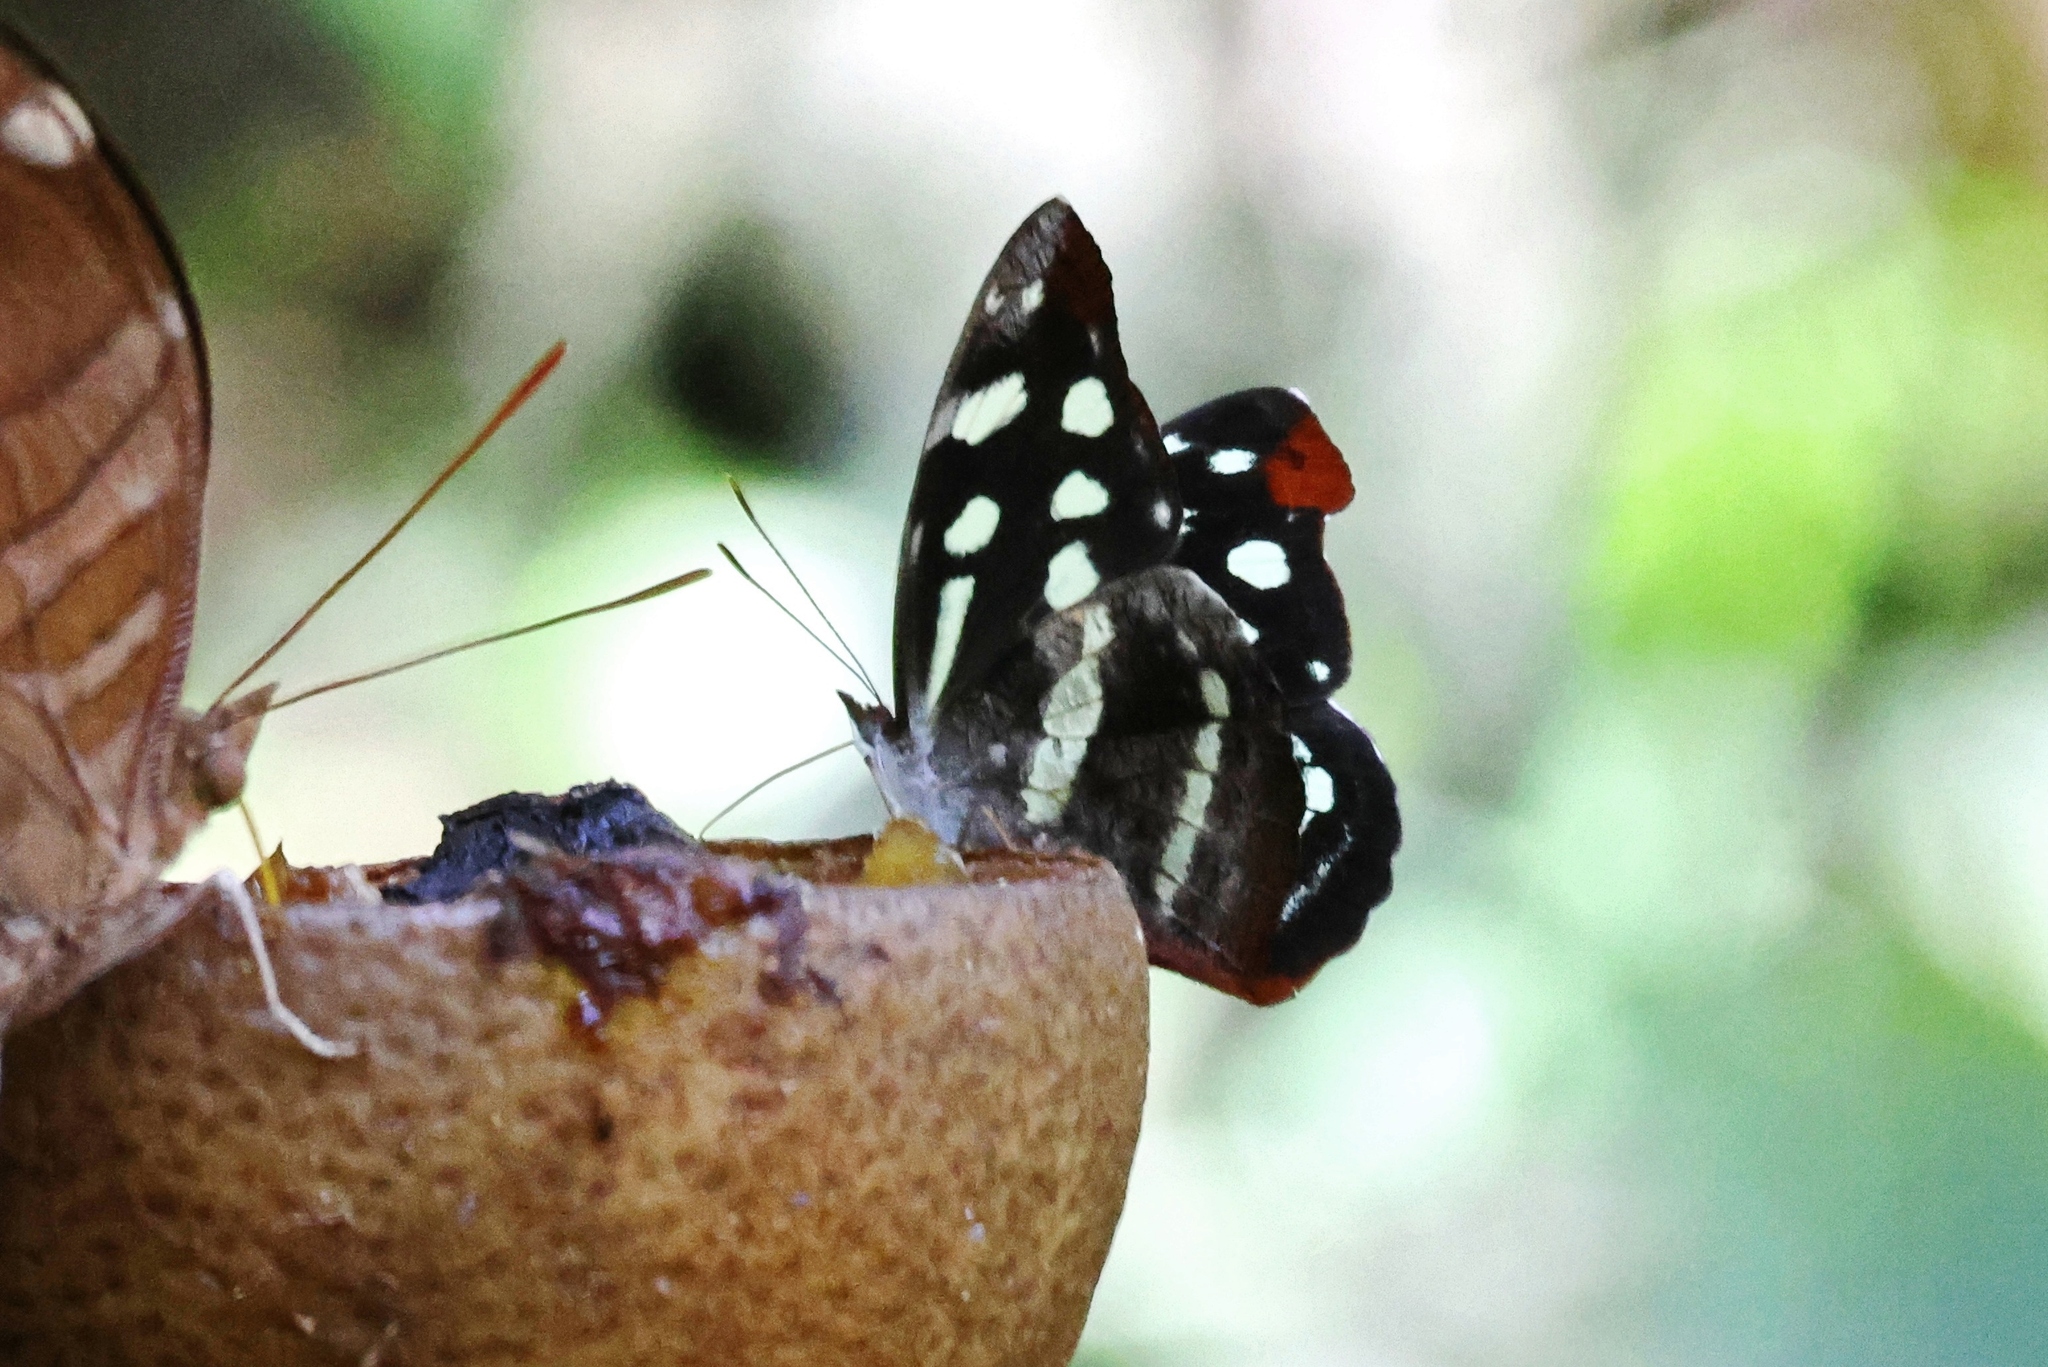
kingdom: Animalia
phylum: Arthropoda
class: Insecta
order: Lepidoptera
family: Nymphalidae
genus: Catonephele
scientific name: Catonephele mexicana
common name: Guatemalan catone
